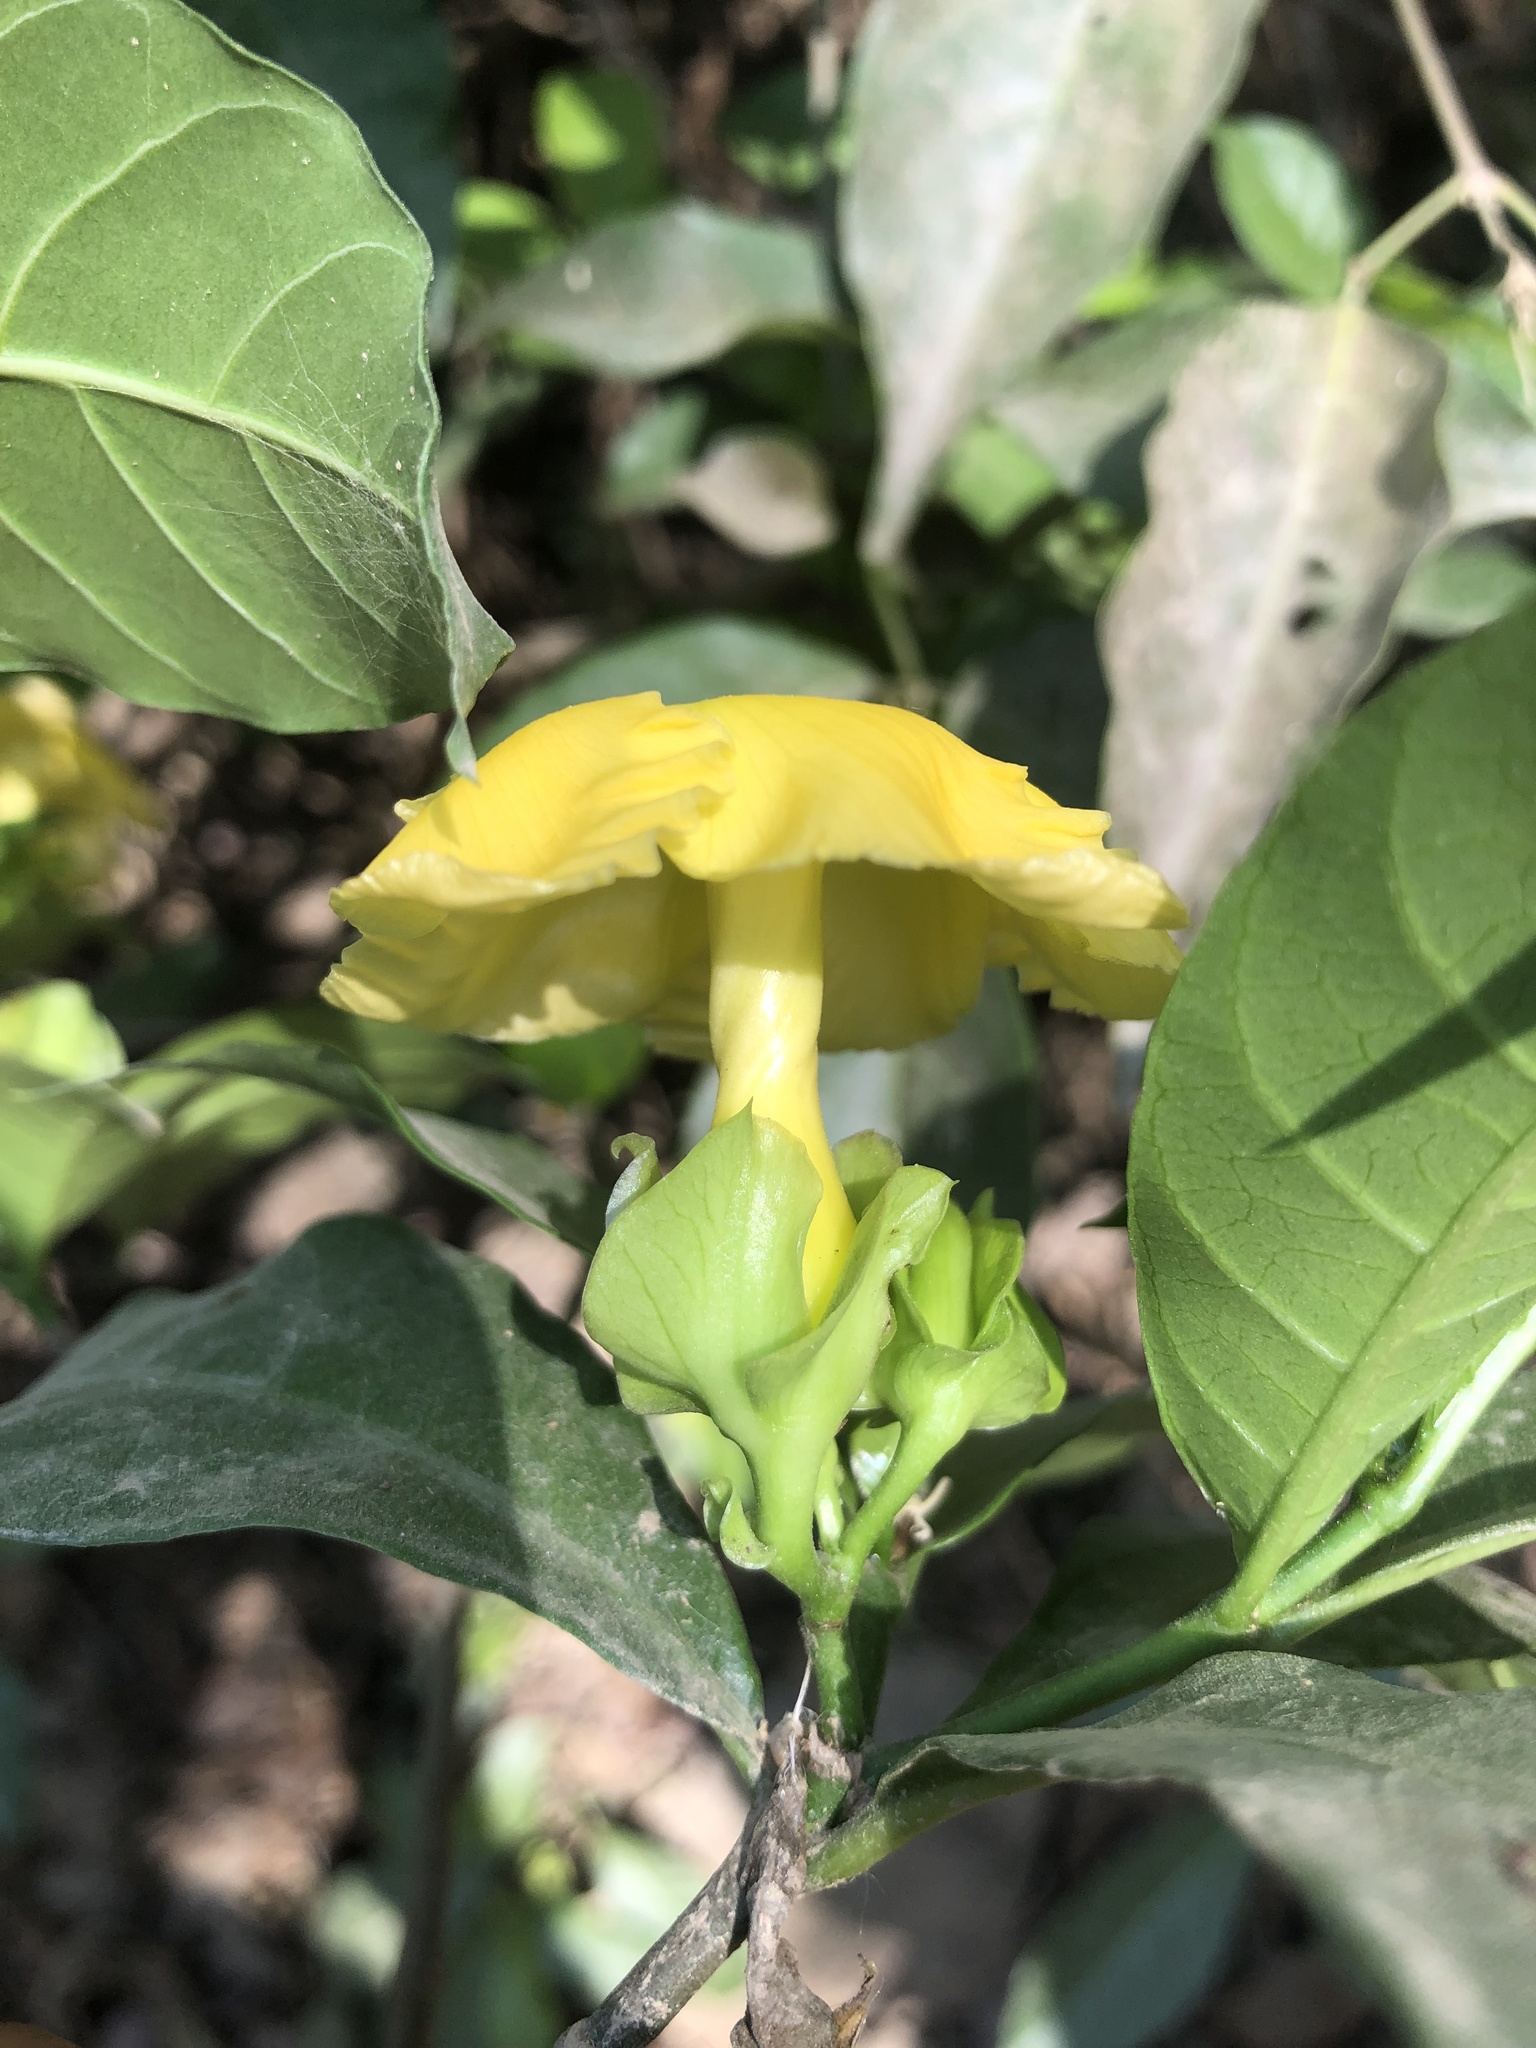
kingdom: Plantae
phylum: Tracheophyta
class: Magnoliopsida
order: Gentianales
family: Apocynaceae
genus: Tabernaemontana
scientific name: Tabernaemontana grandiflora
